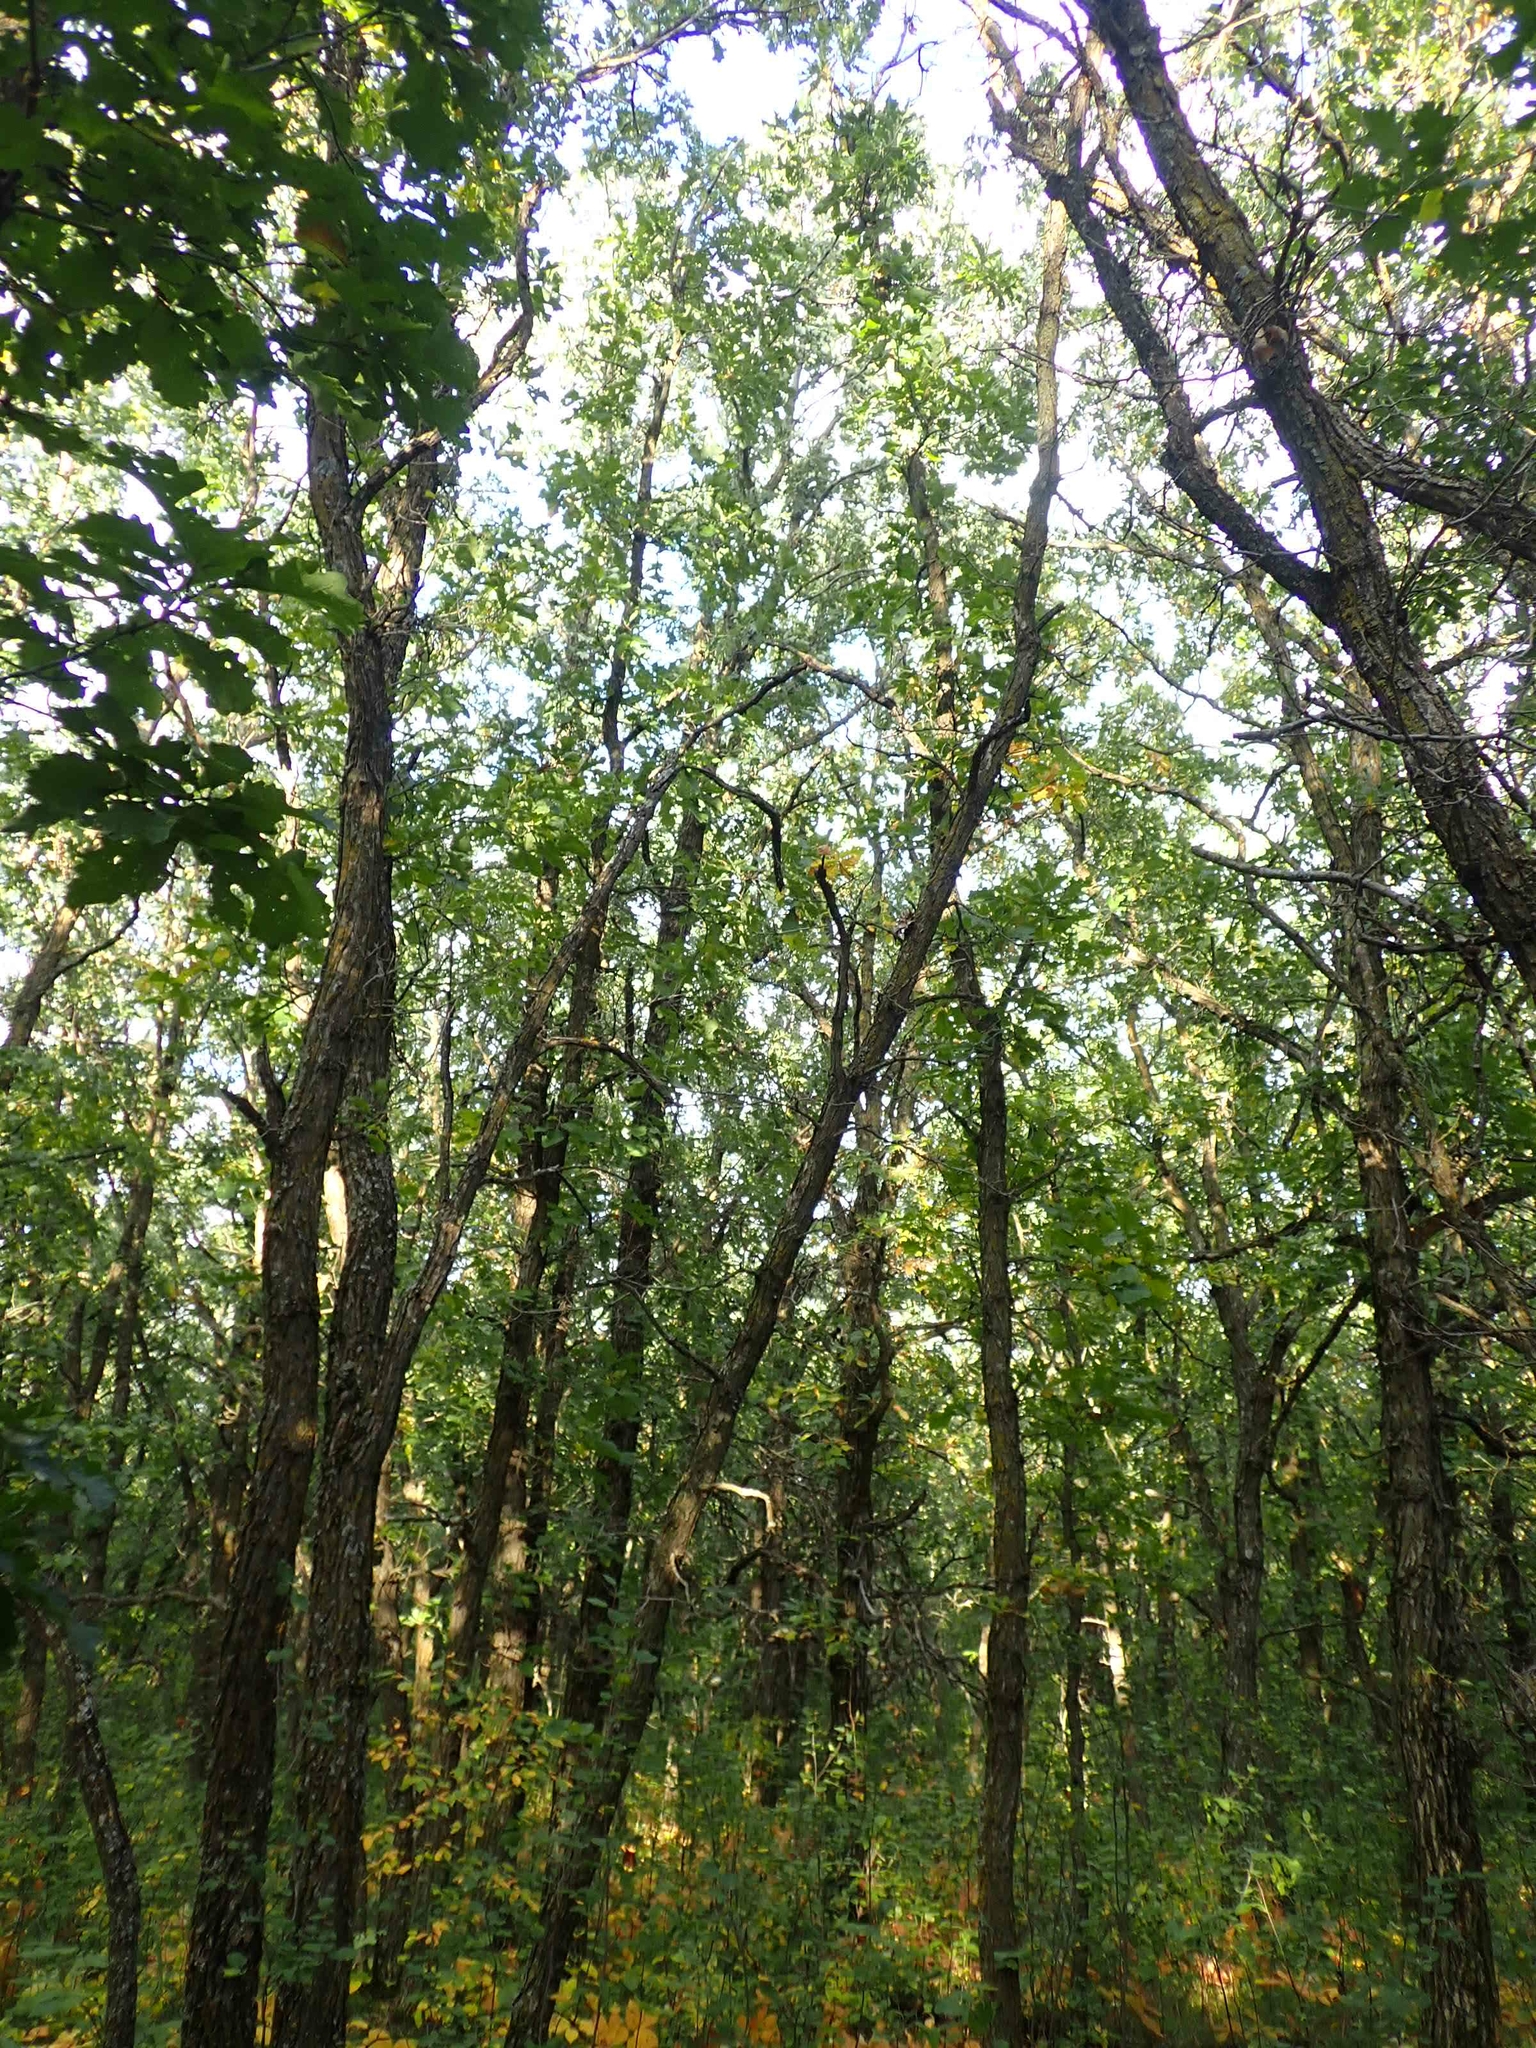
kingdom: Plantae
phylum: Tracheophyta
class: Magnoliopsida
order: Fagales
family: Fagaceae
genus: Quercus
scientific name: Quercus macrocarpa
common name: Bur oak
